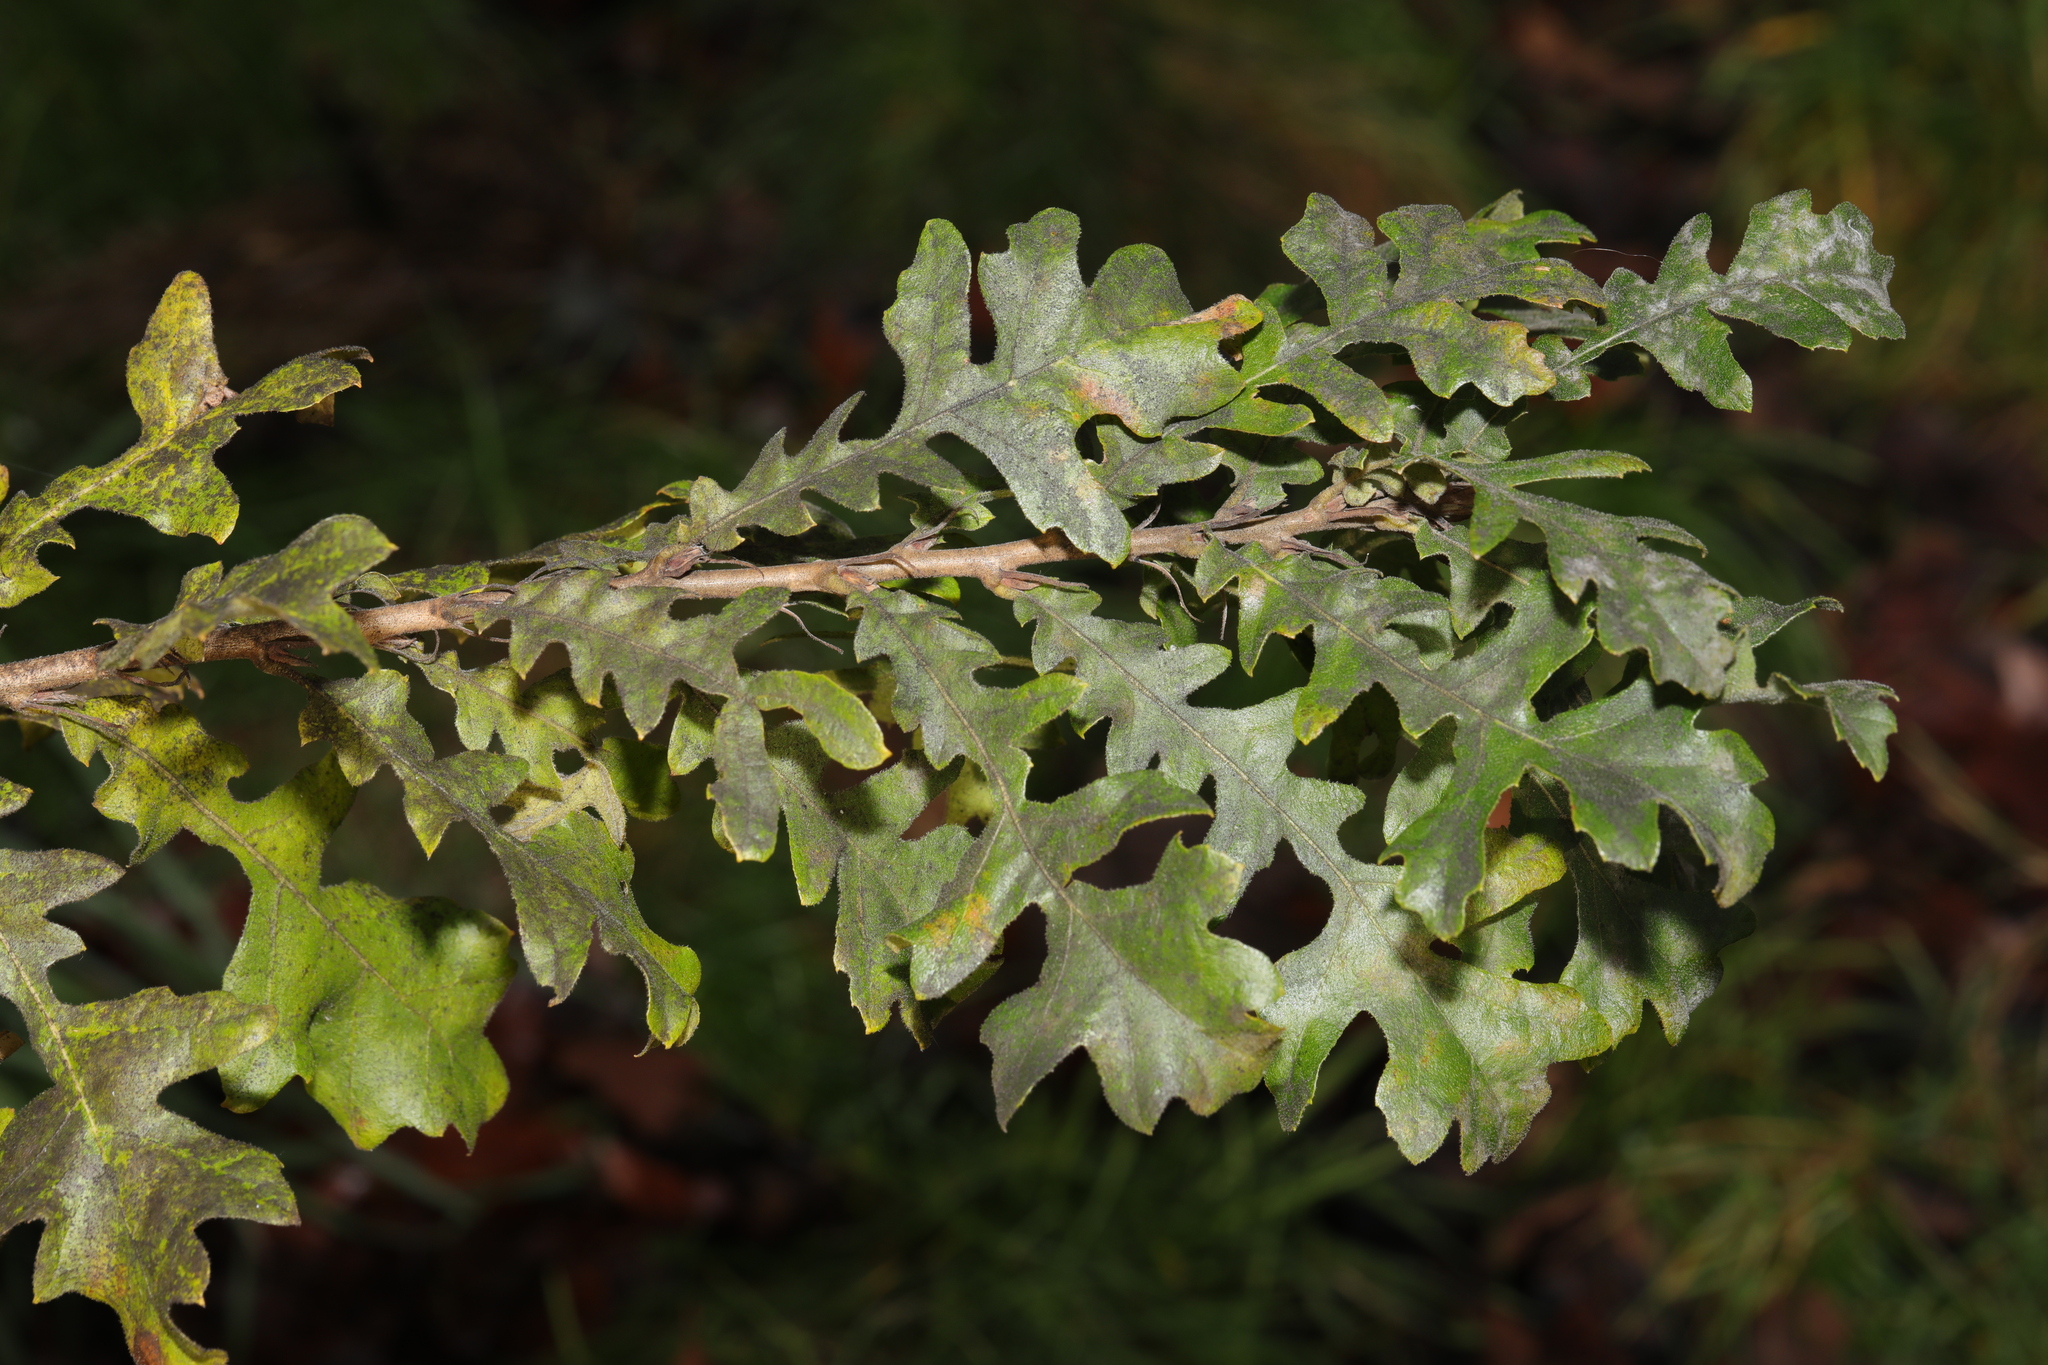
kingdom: Plantae
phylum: Tracheophyta
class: Magnoliopsida
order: Fagales
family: Fagaceae
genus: Quercus
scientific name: Quercus cerris
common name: Turkey oak
